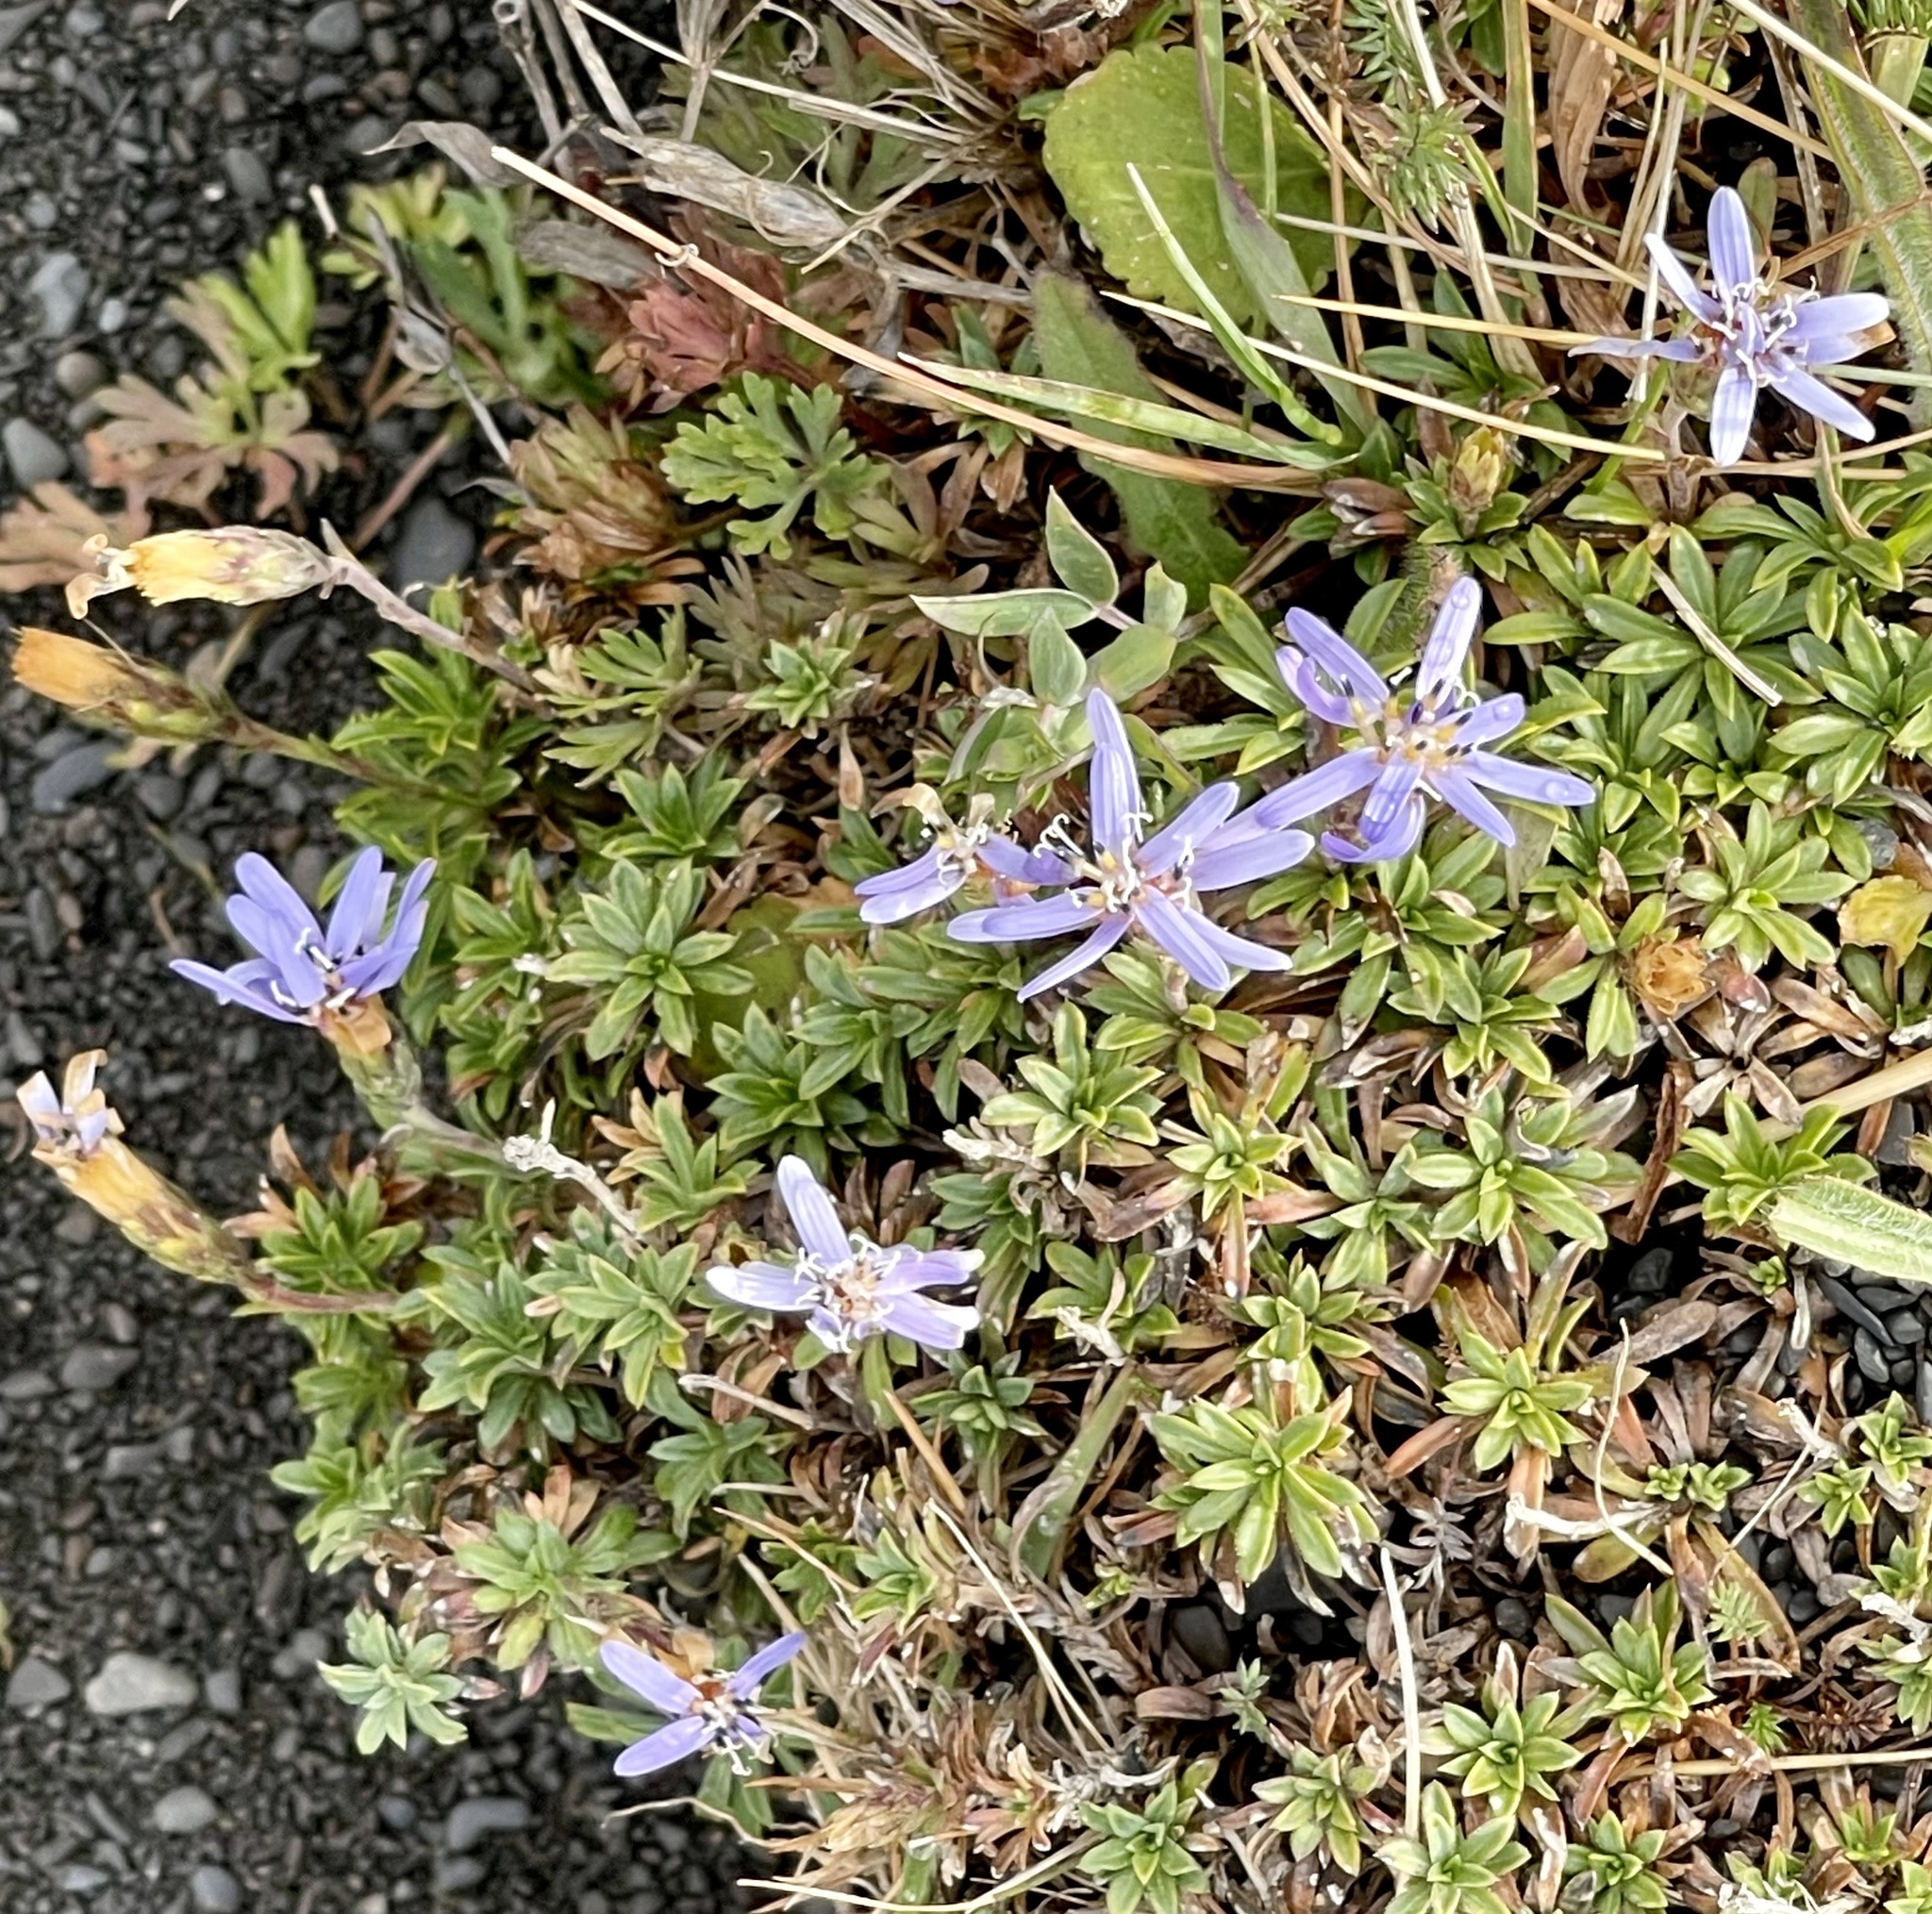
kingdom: Plantae
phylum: Tracheophyta
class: Magnoliopsida
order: Asterales
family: Asteraceae
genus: Perezia
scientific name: Perezia recurvata
